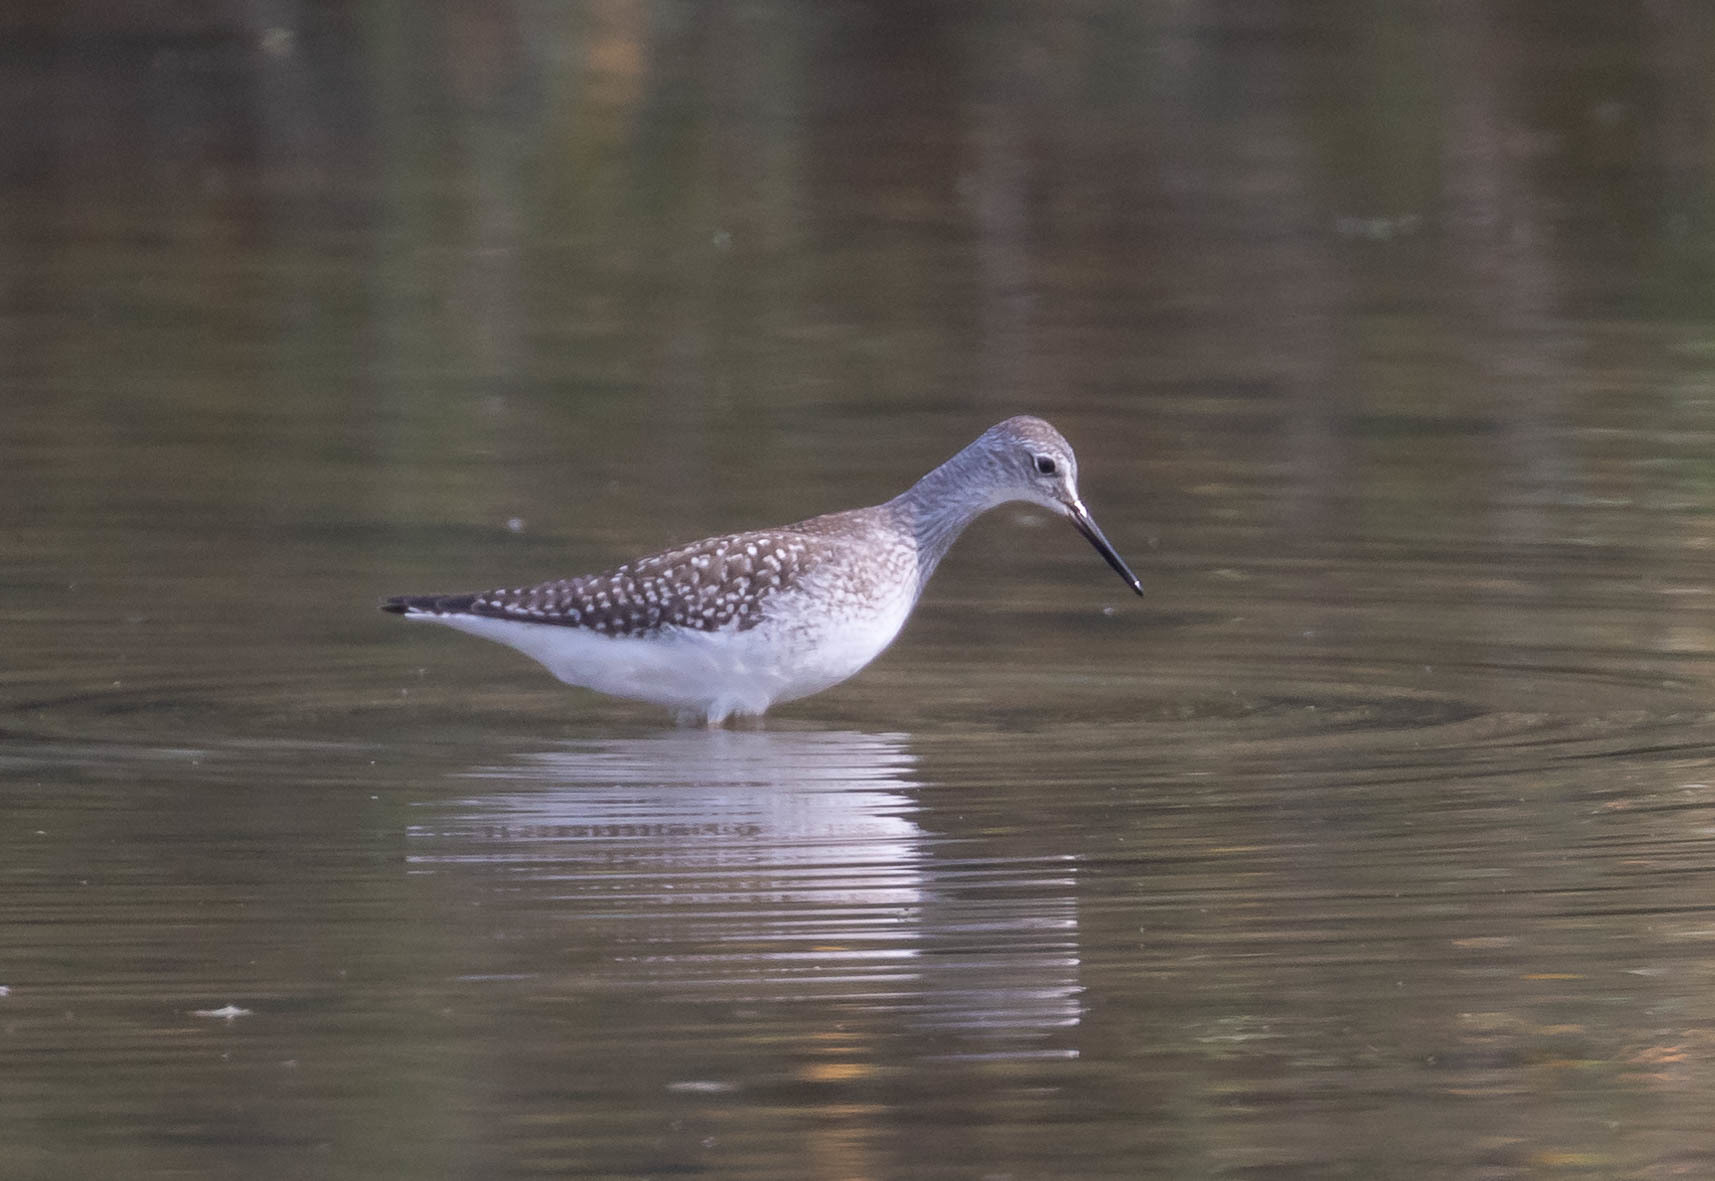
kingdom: Animalia
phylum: Chordata
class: Aves
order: Charadriiformes
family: Scolopacidae
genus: Tringa
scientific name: Tringa flavipes
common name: Lesser yellowlegs
